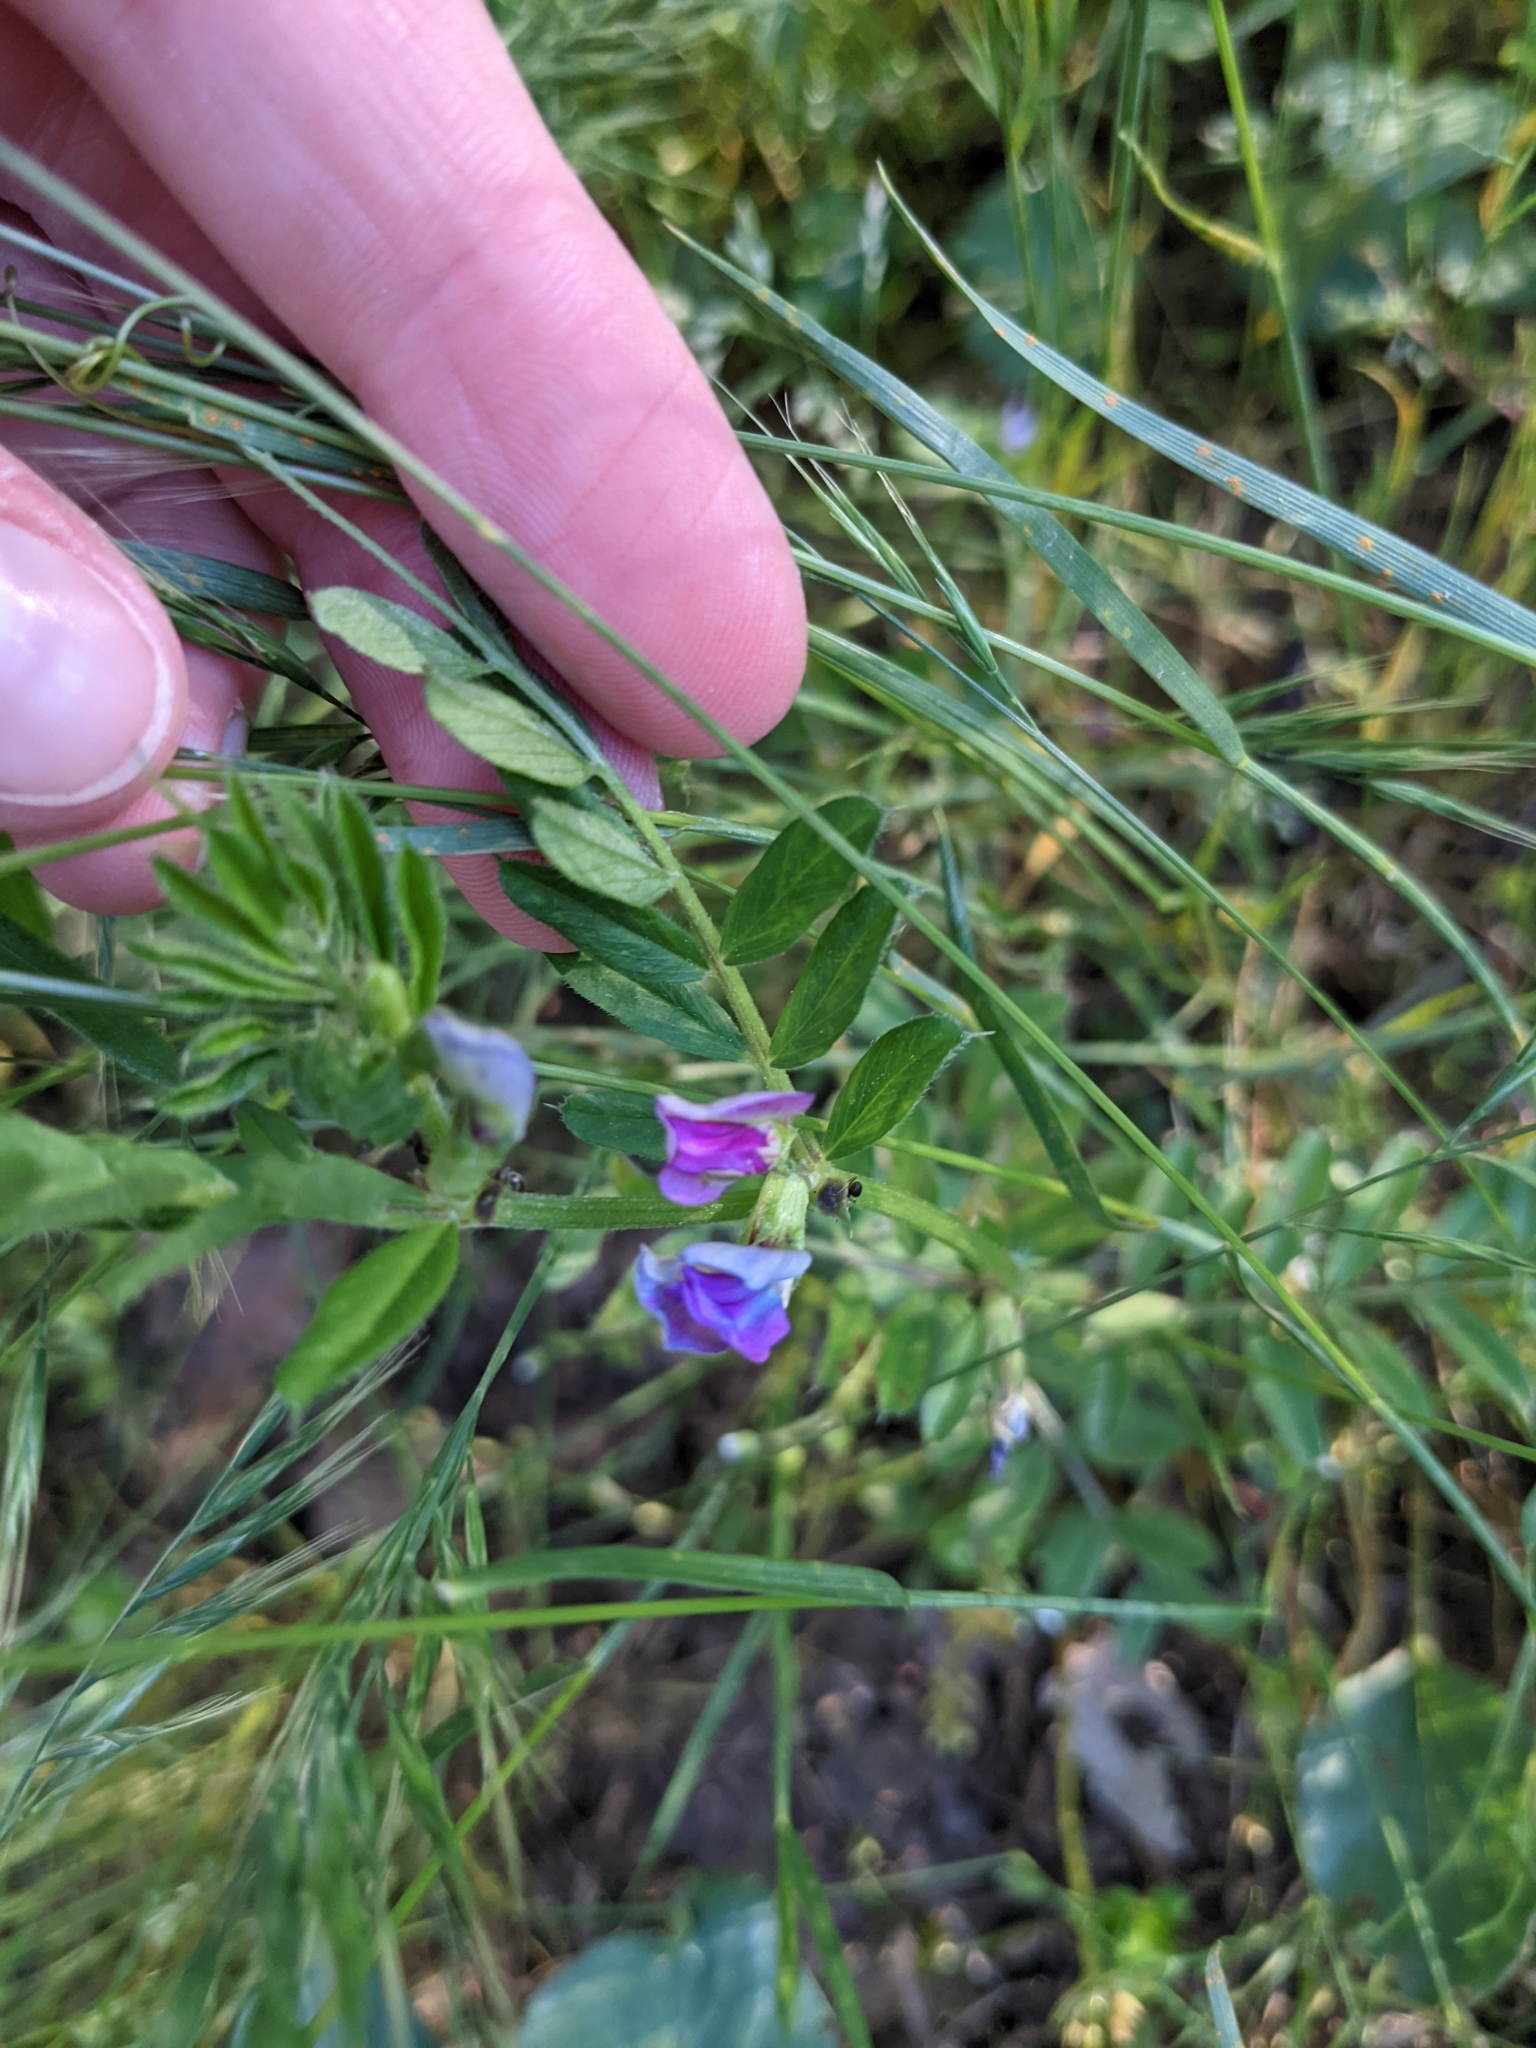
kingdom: Plantae
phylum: Tracheophyta
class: Magnoliopsida
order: Fabales
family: Fabaceae
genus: Vicia
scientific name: Vicia sativa
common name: Garden vetch
